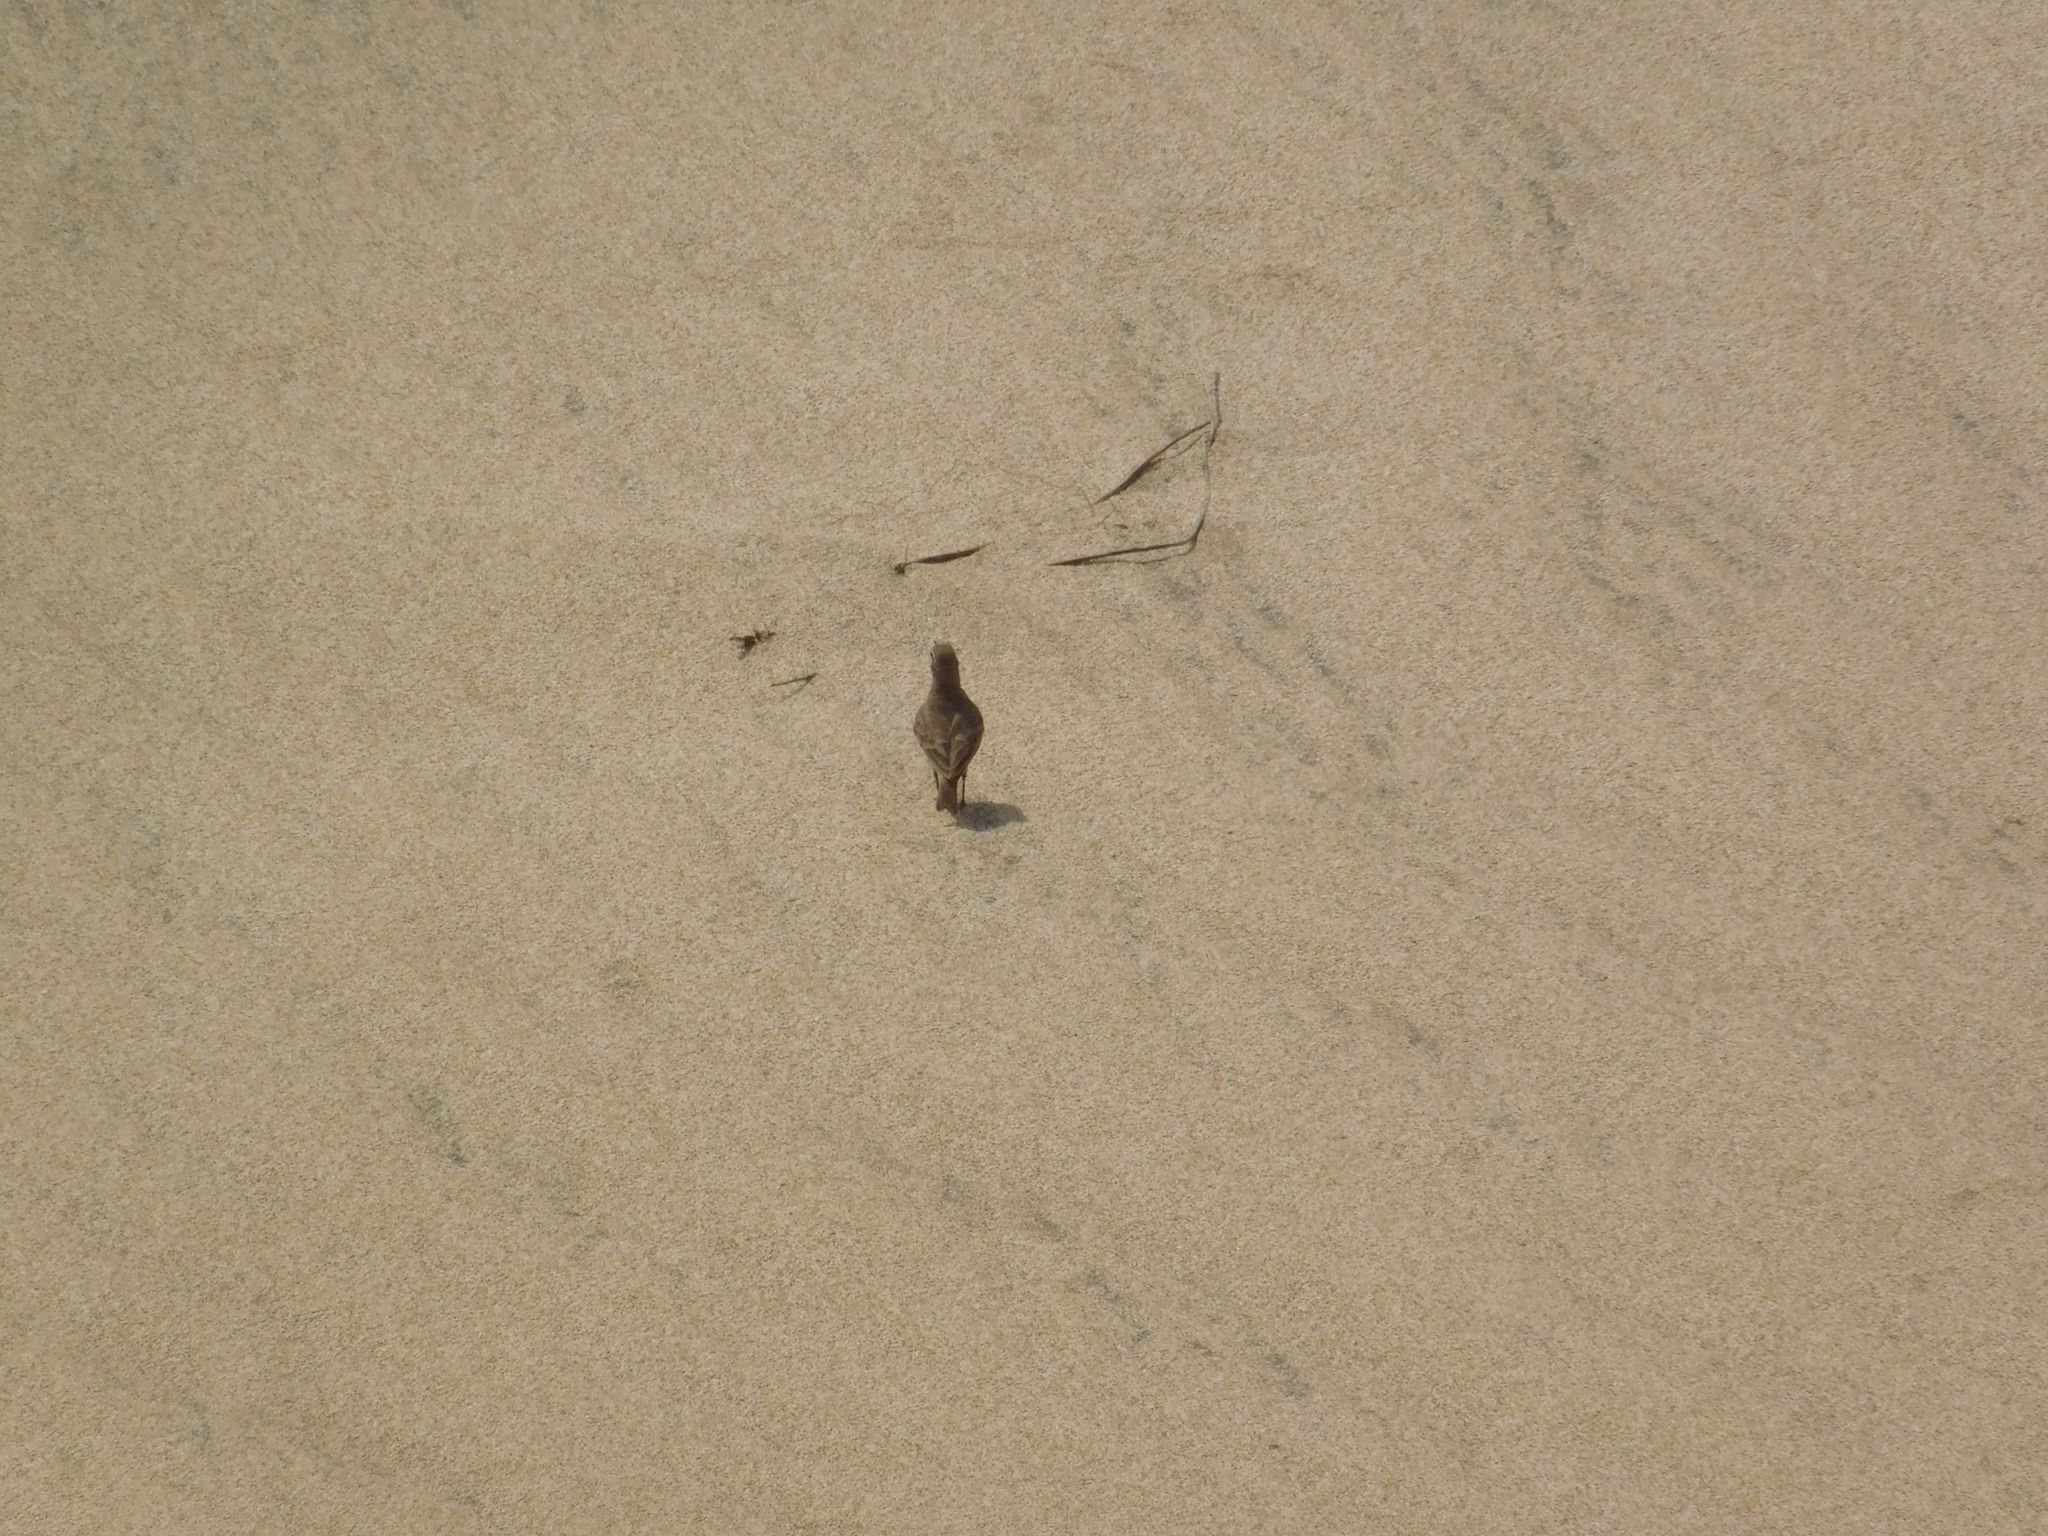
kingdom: Animalia
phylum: Chordata
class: Aves
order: Passeriformes
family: Furnariidae
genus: Geositta
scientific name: Geositta cunicularia
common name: Common miner
